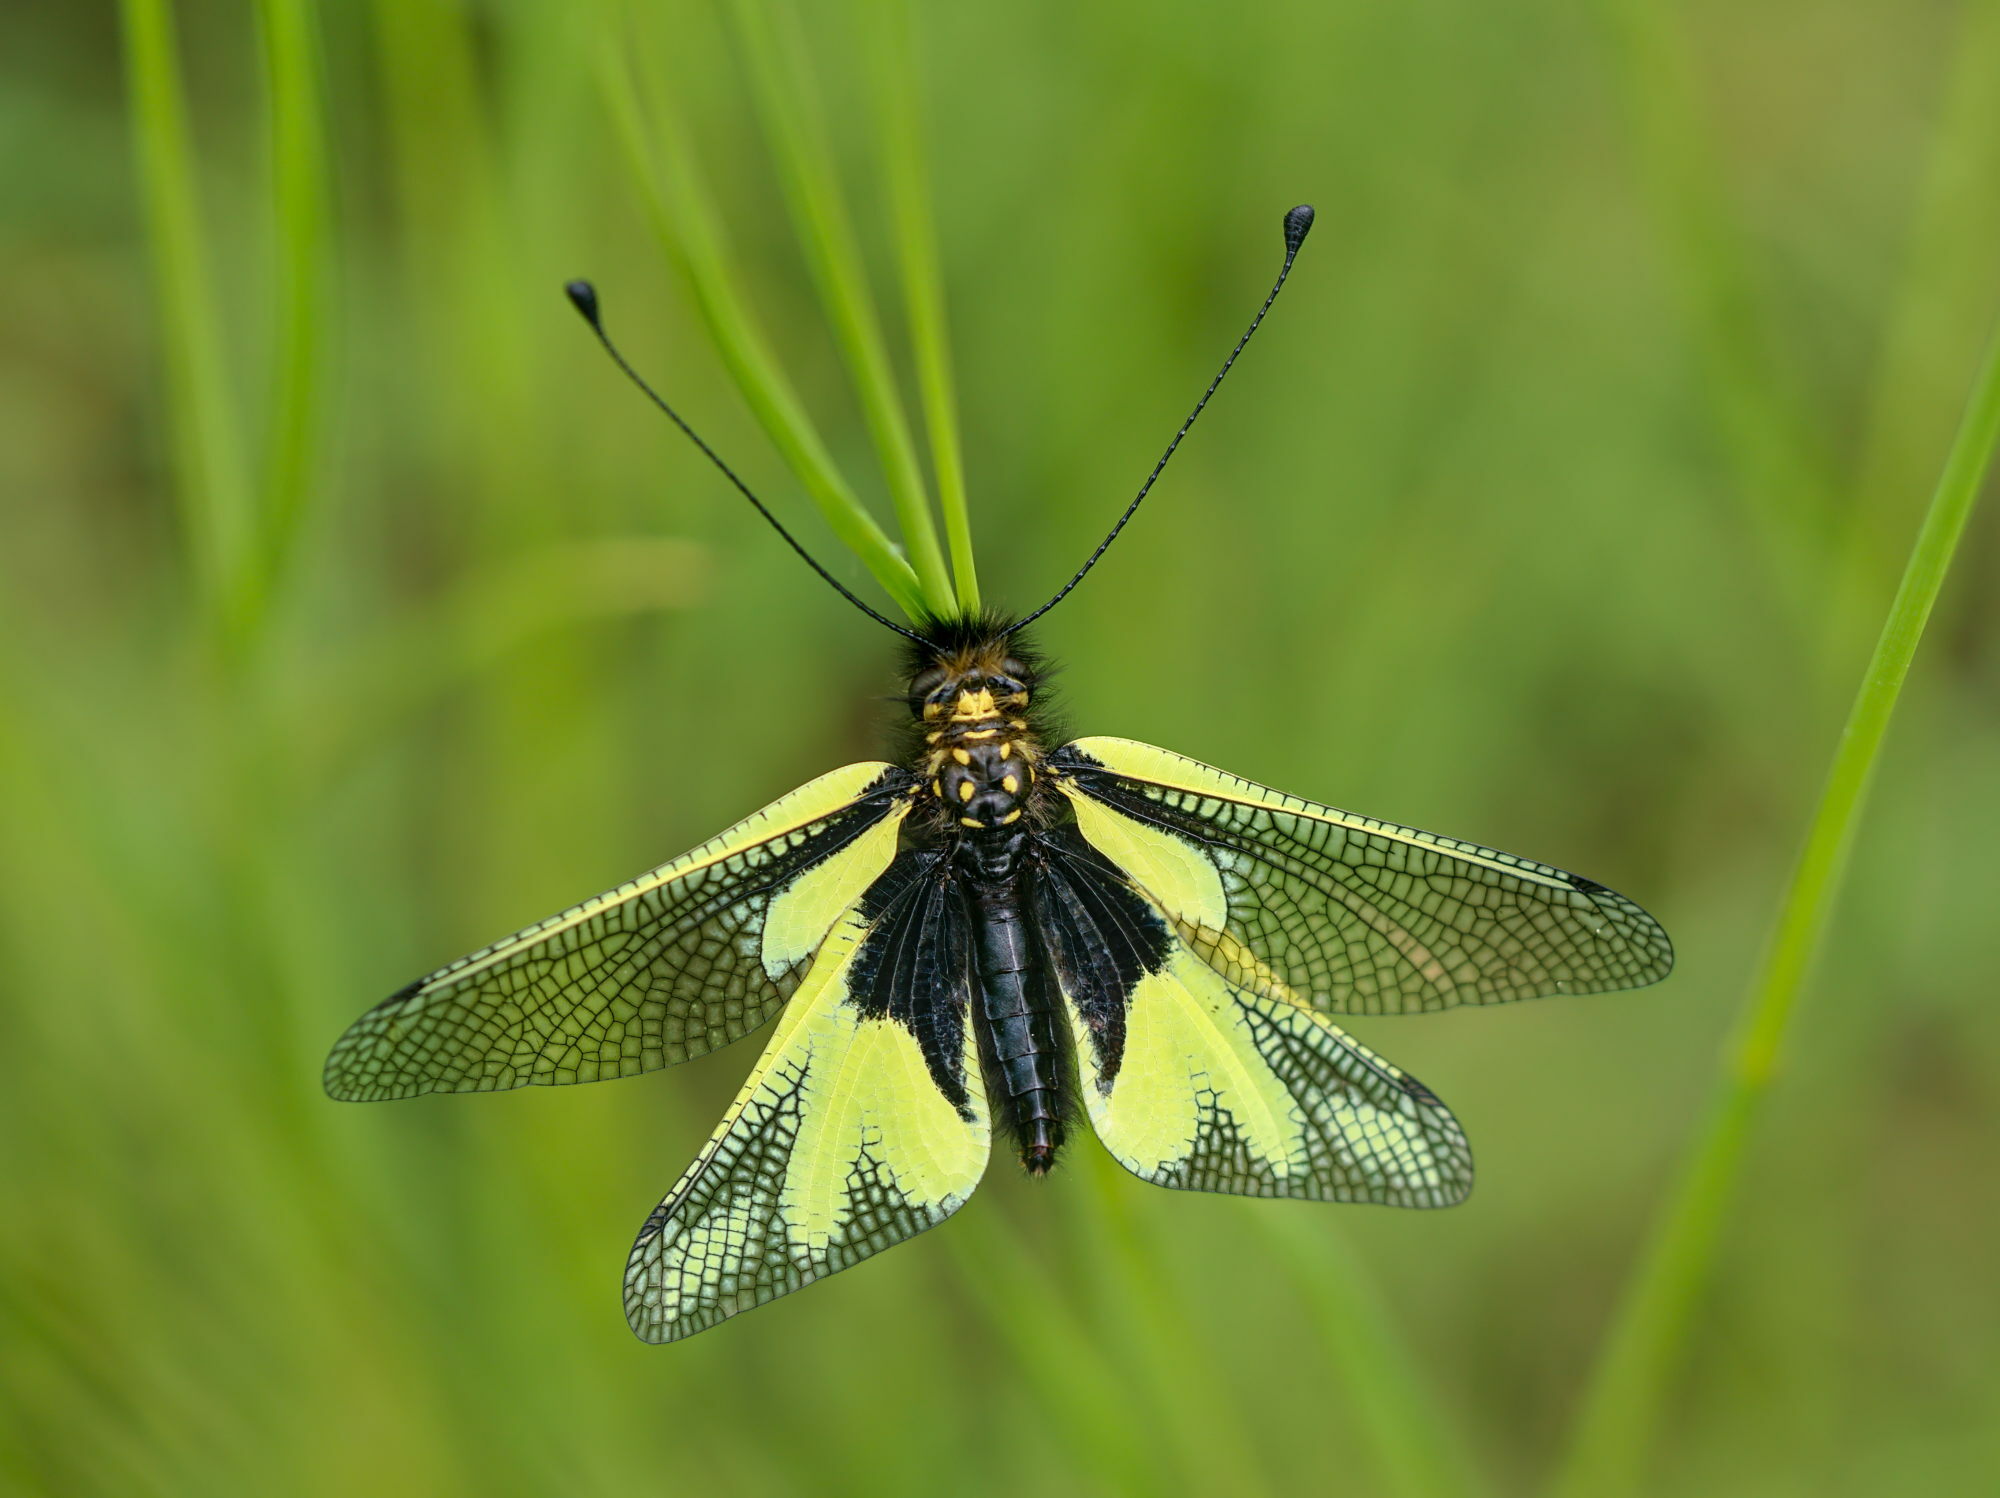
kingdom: Animalia
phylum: Arthropoda
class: Insecta
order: Neuroptera
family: Ascalaphidae
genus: Libelloides
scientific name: Libelloides coccajus
